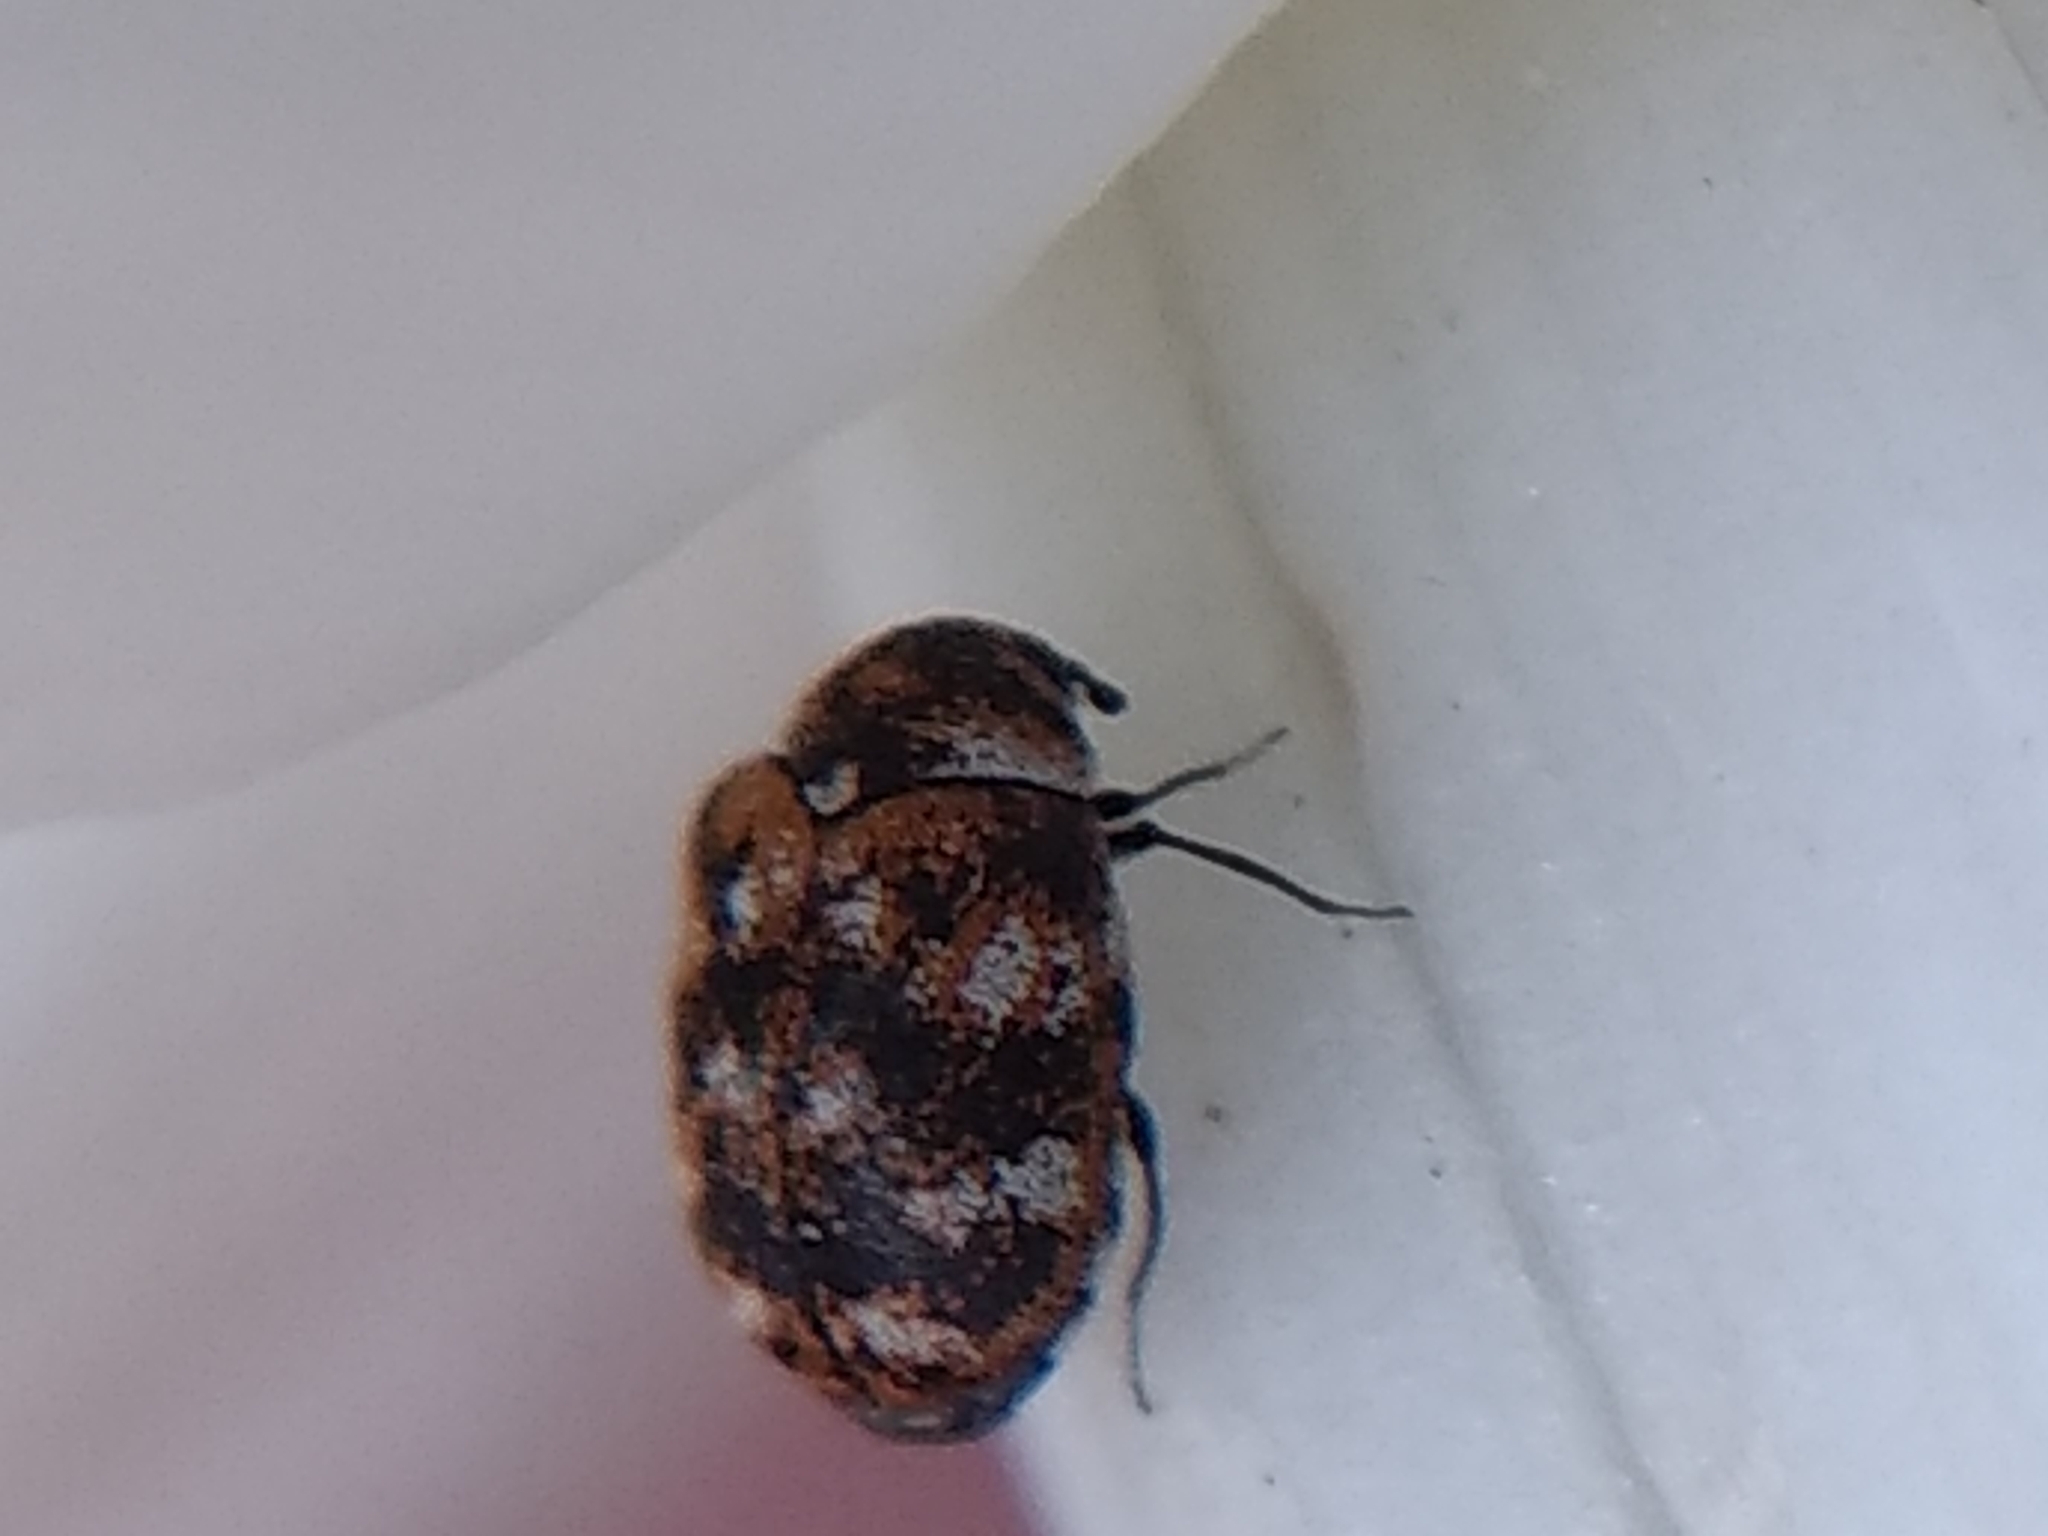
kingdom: Animalia
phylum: Arthropoda
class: Insecta
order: Coleoptera
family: Dermestidae
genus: Anthrenus
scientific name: Anthrenus verbasci
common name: Varied carpet beetle
